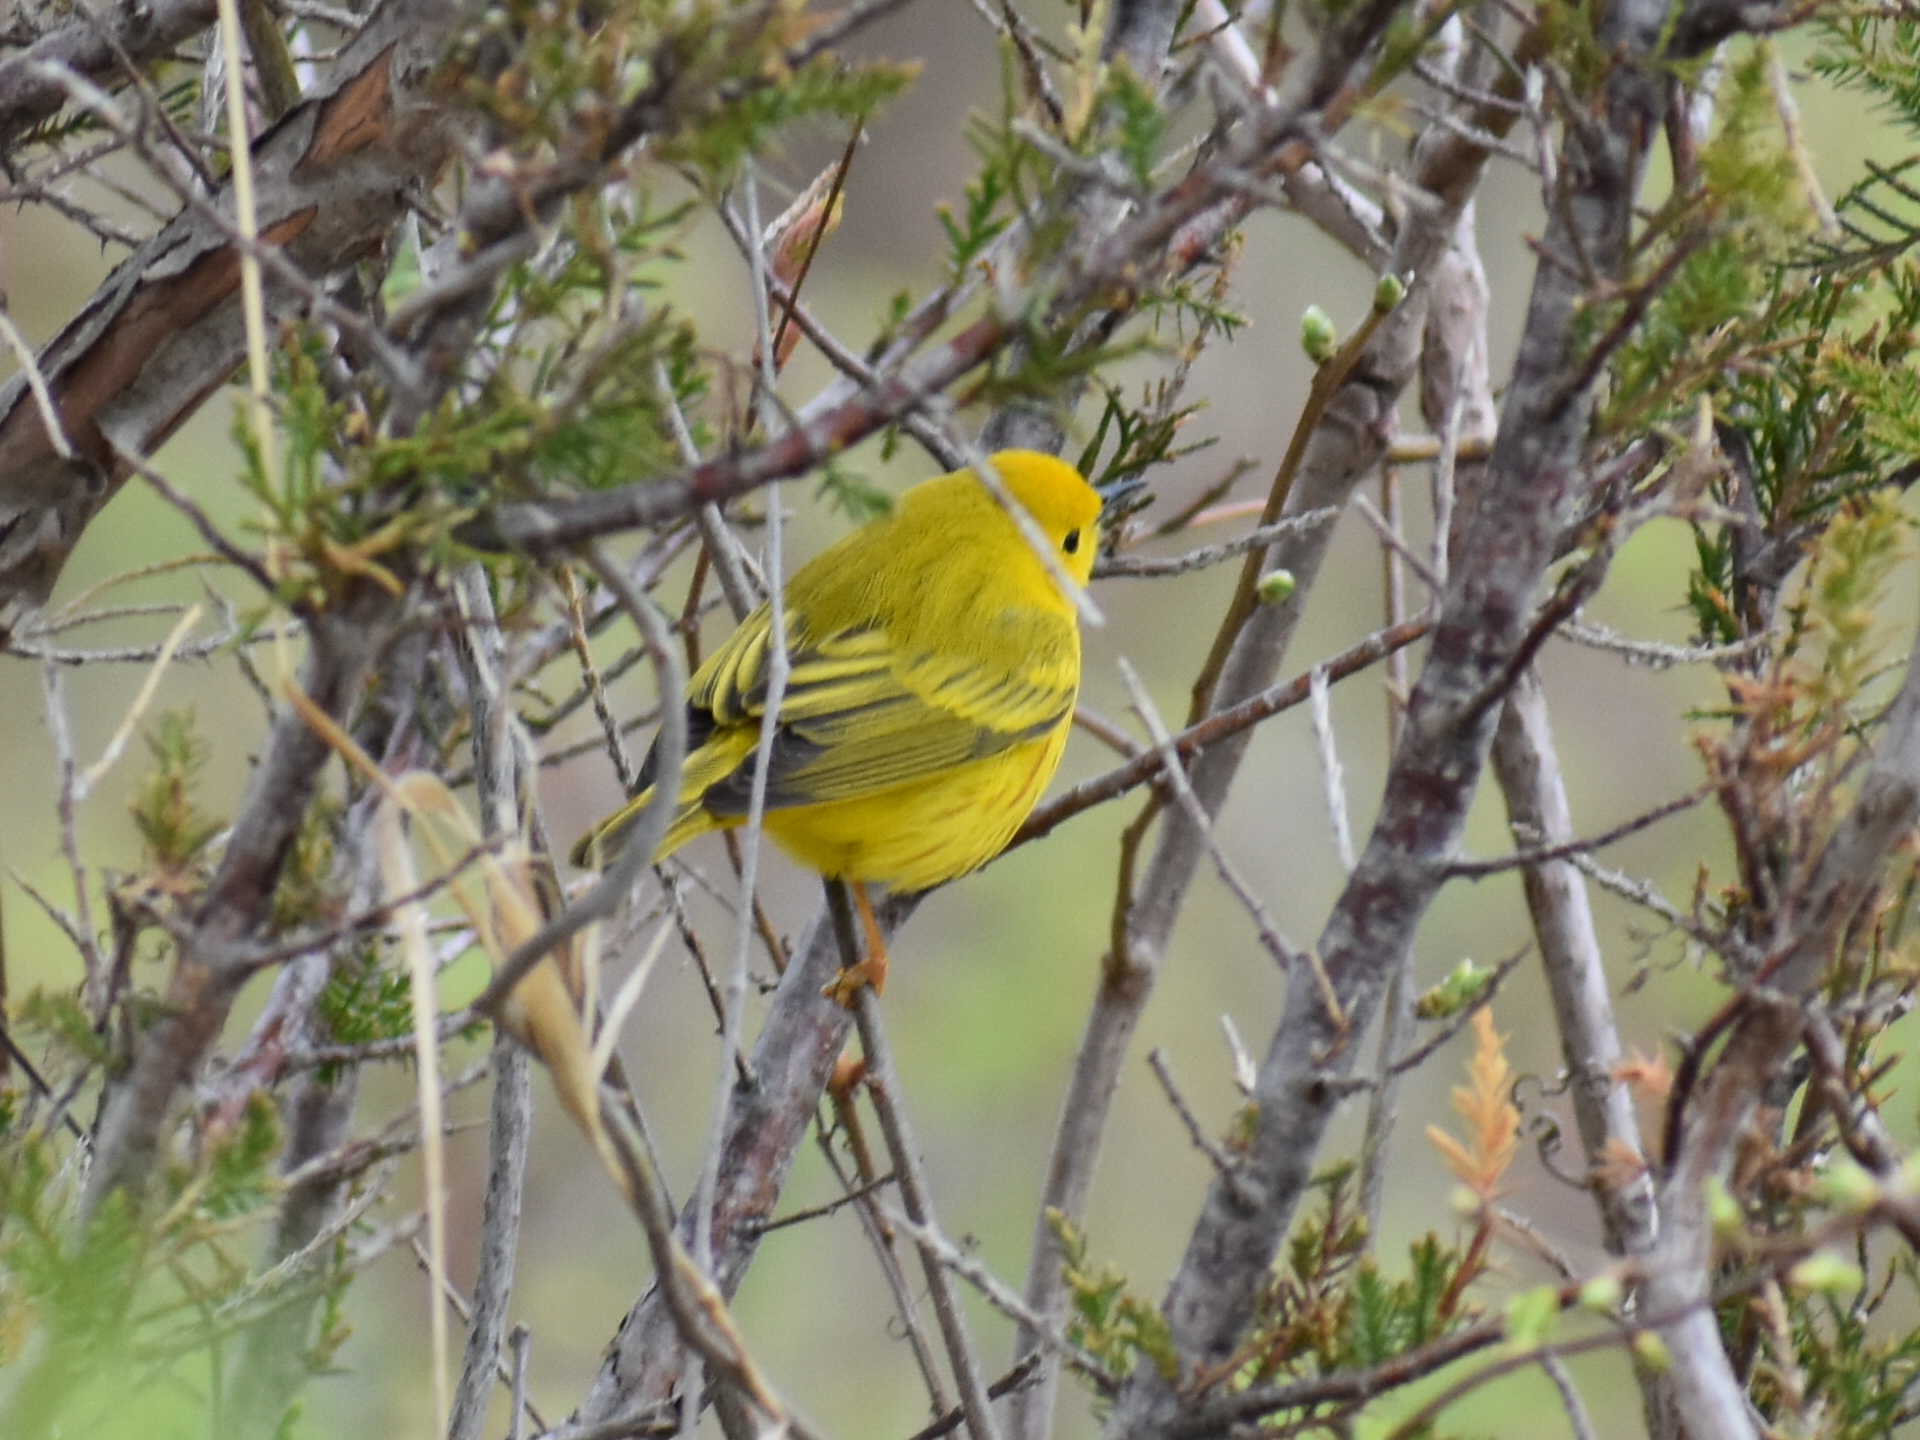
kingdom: Animalia
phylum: Chordata
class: Aves
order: Passeriformes
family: Parulidae
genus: Setophaga
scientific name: Setophaga petechia
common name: Yellow warbler
